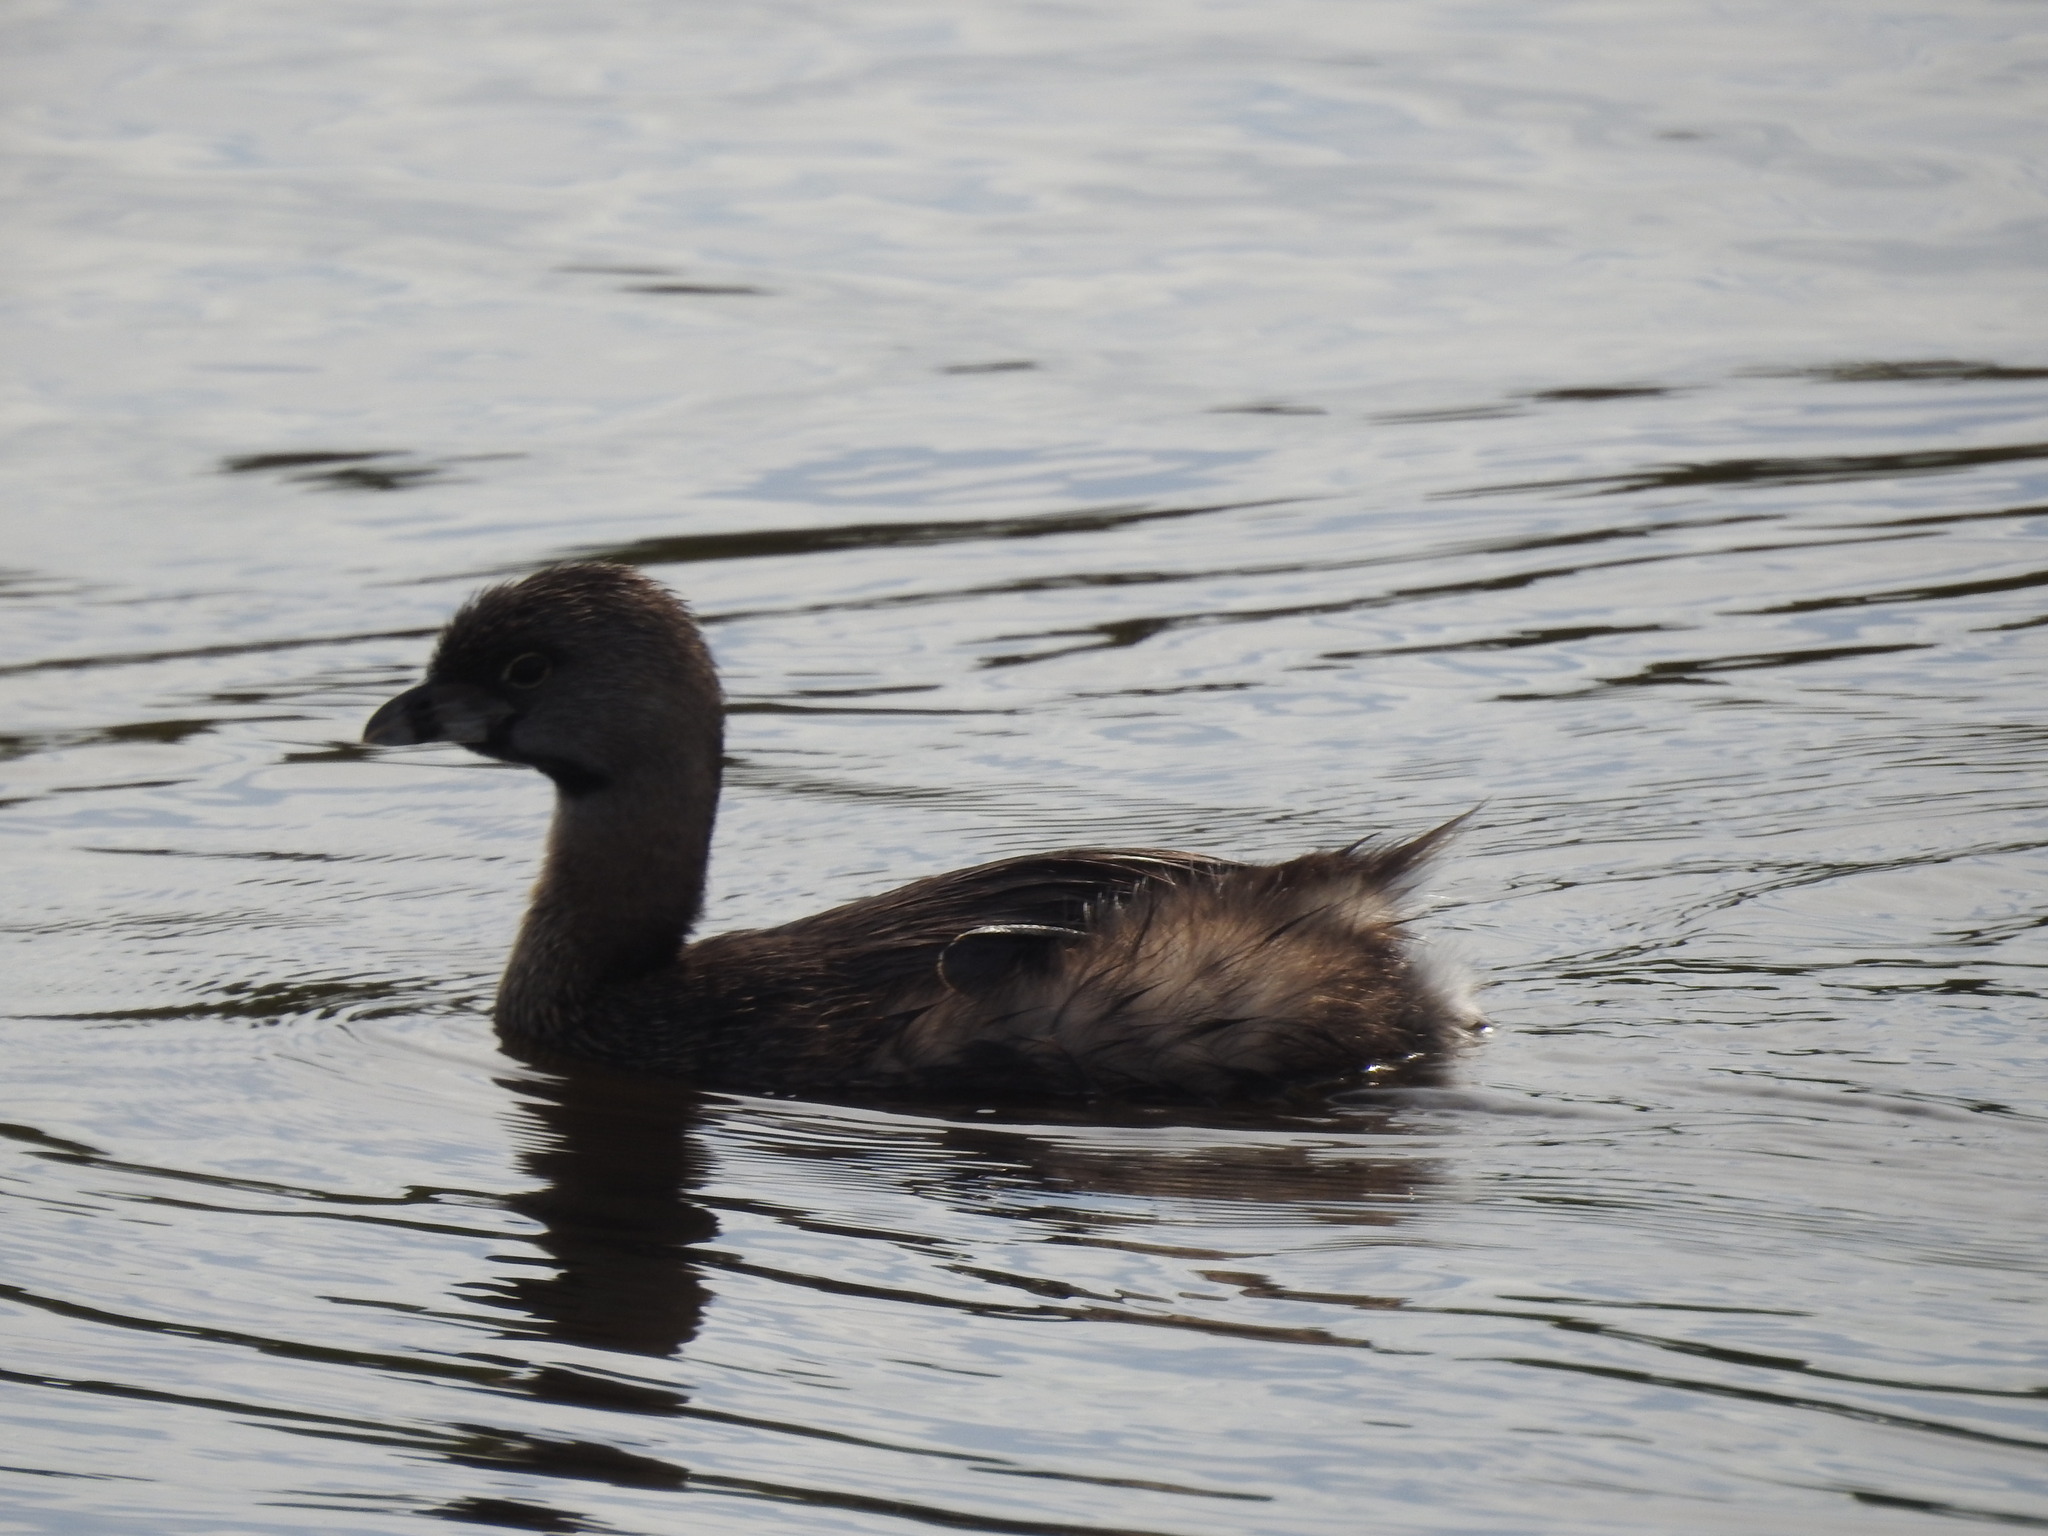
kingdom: Animalia
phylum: Chordata
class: Aves
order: Podicipediformes
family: Podicipedidae
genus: Podilymbus
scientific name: Podilymbus podiceps
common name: Pied-billed grebe
